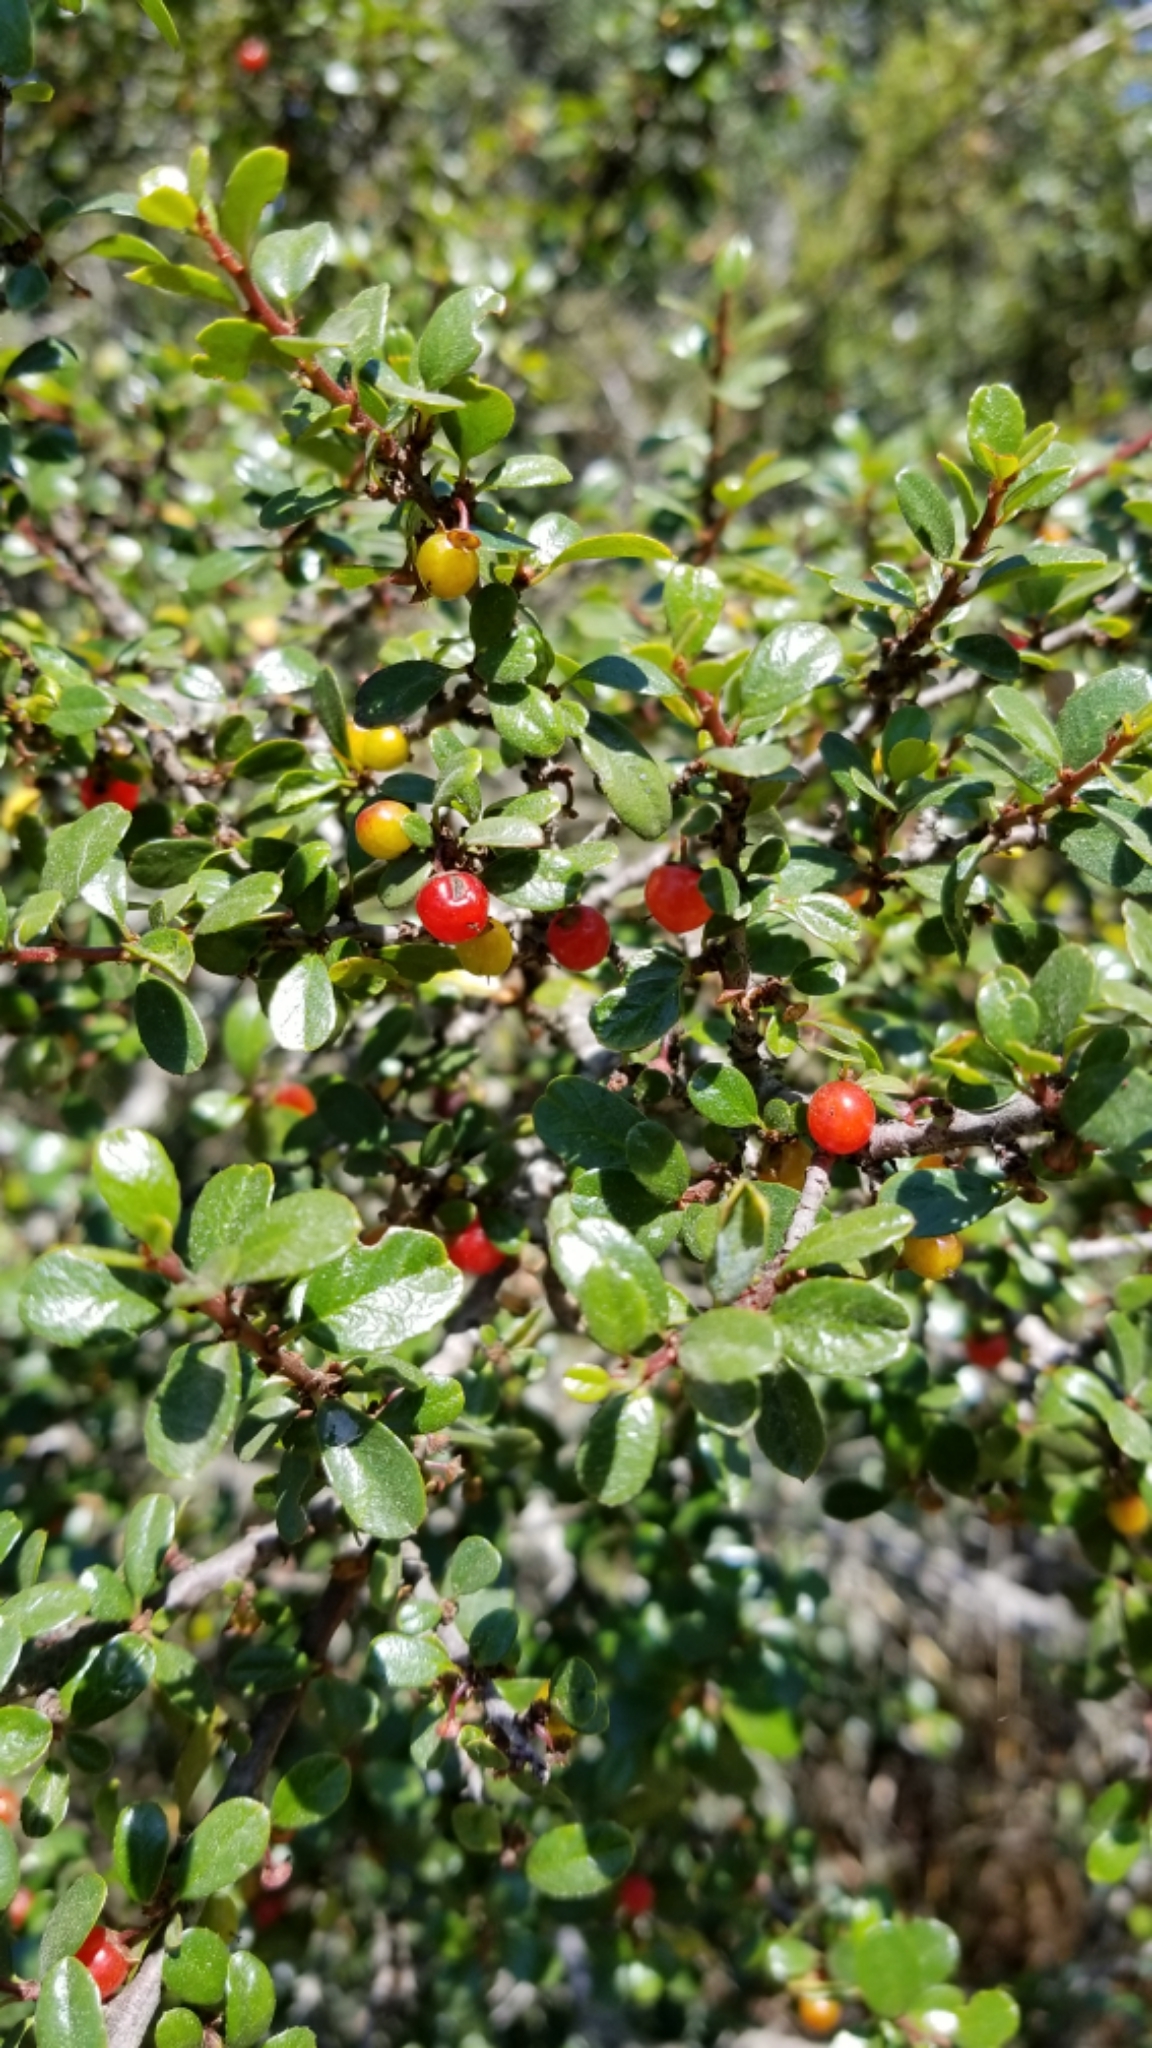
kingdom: Plantae
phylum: Tracheophyta
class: Magnoliopsida
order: Rosales
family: Rhamnaceae
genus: Endotropis
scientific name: Endotropis crocea
